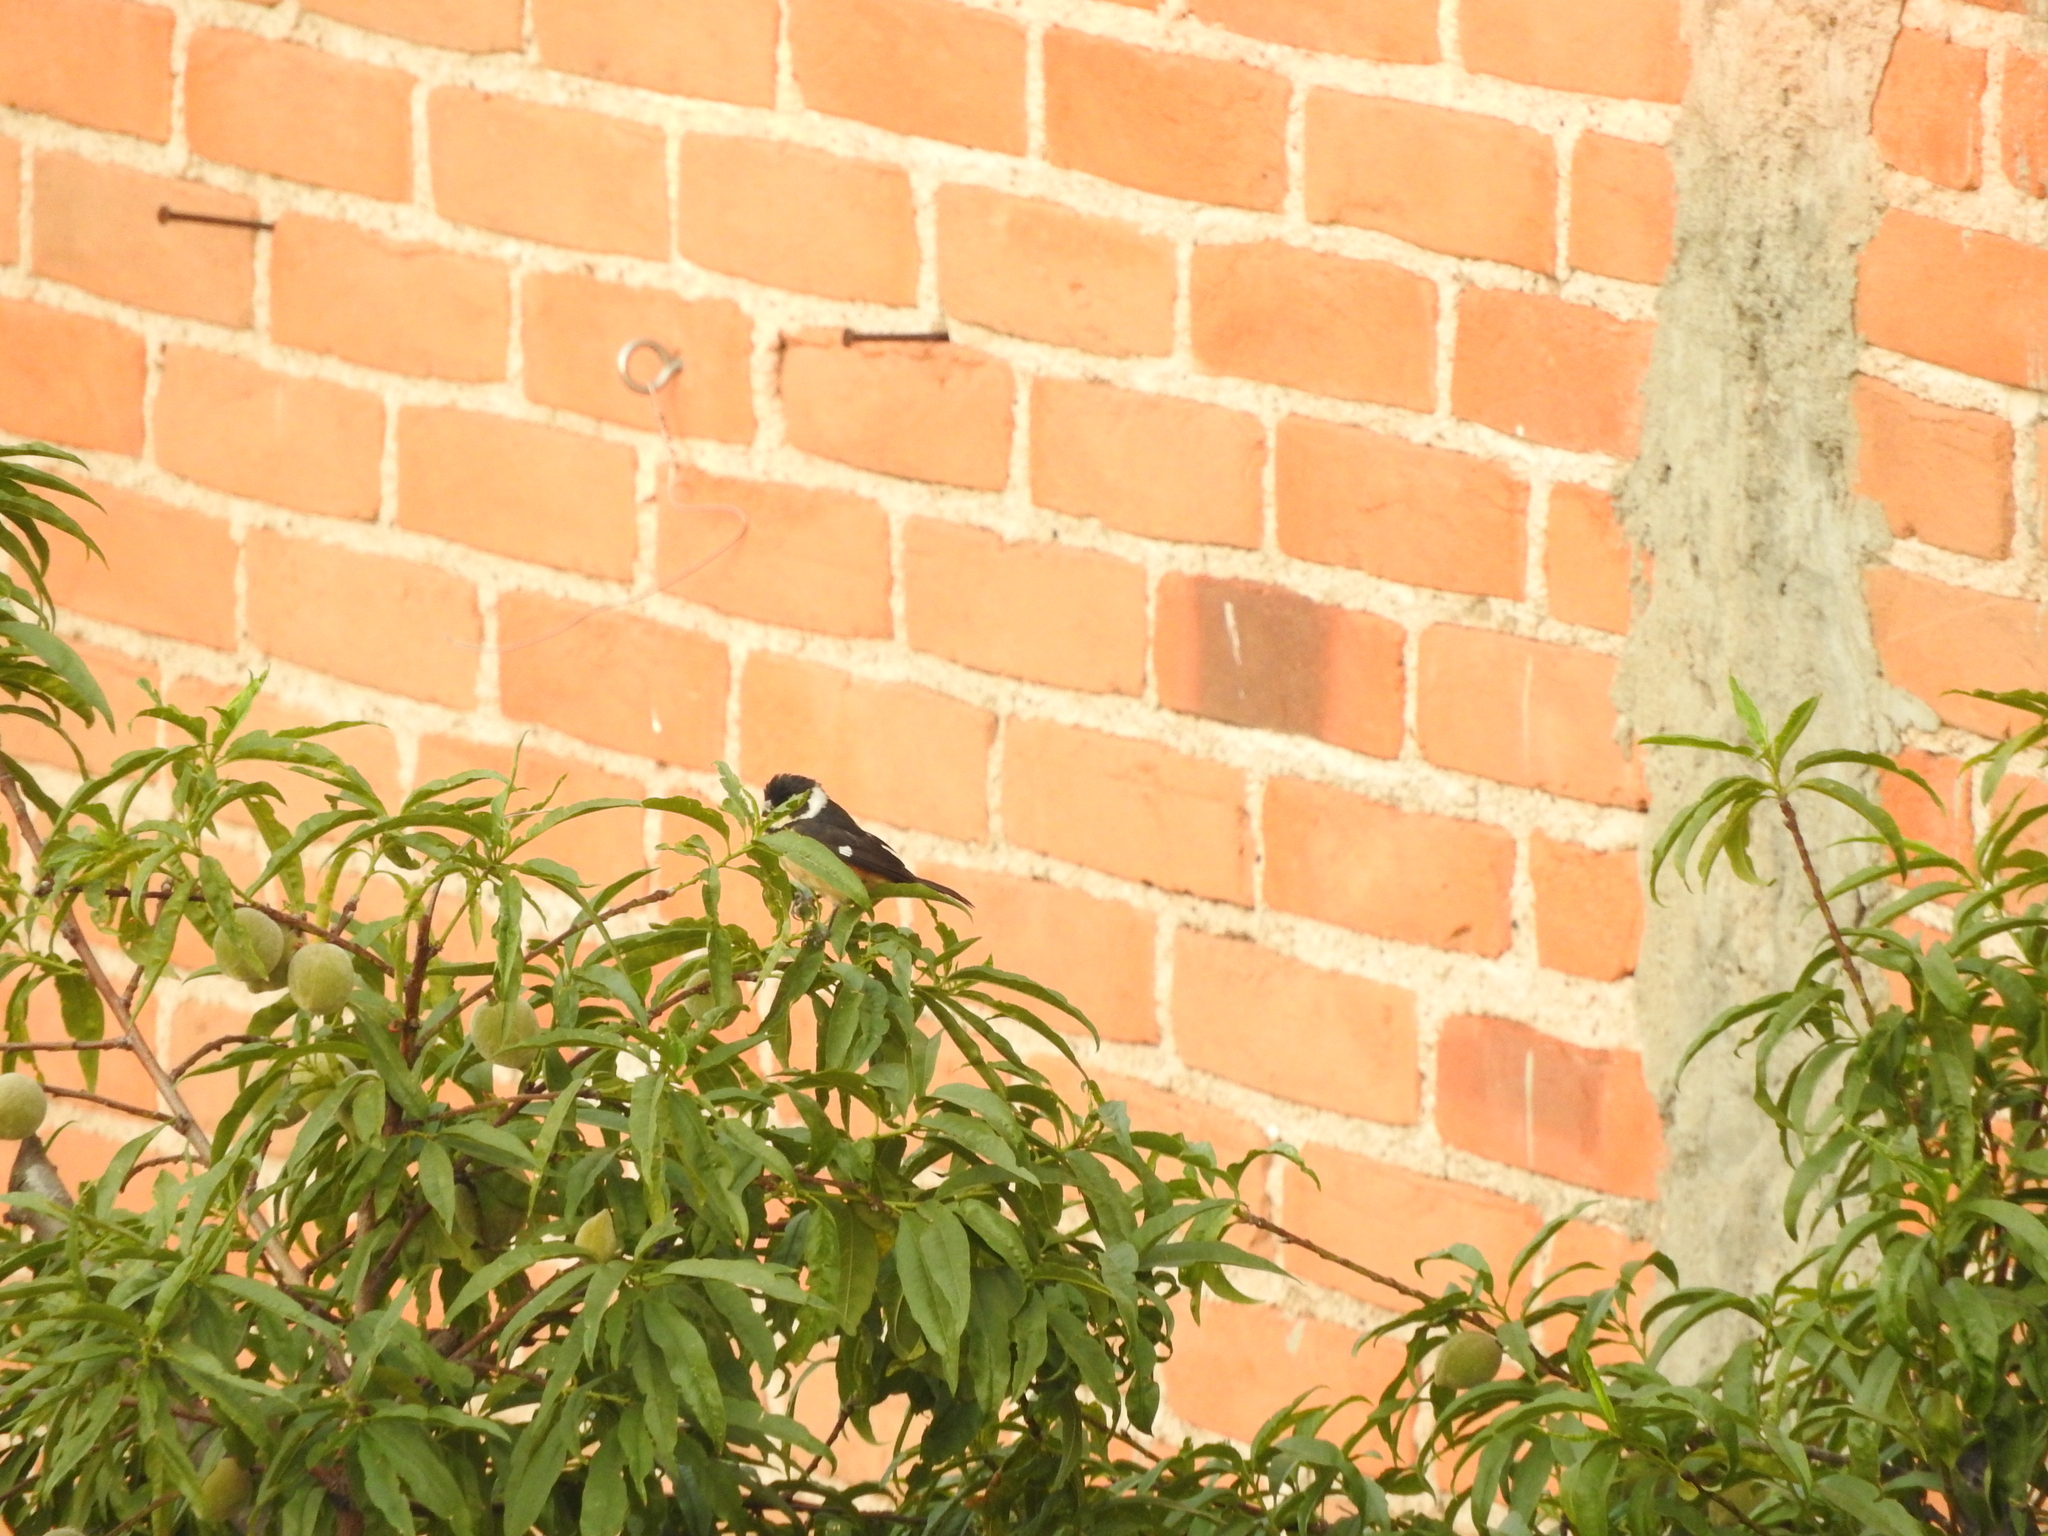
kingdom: Animalia
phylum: Chordata
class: Aves
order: Passeriformes
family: Thraupidae
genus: Sporophila
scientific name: Sporophila torqueola
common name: White-collared seedeater
